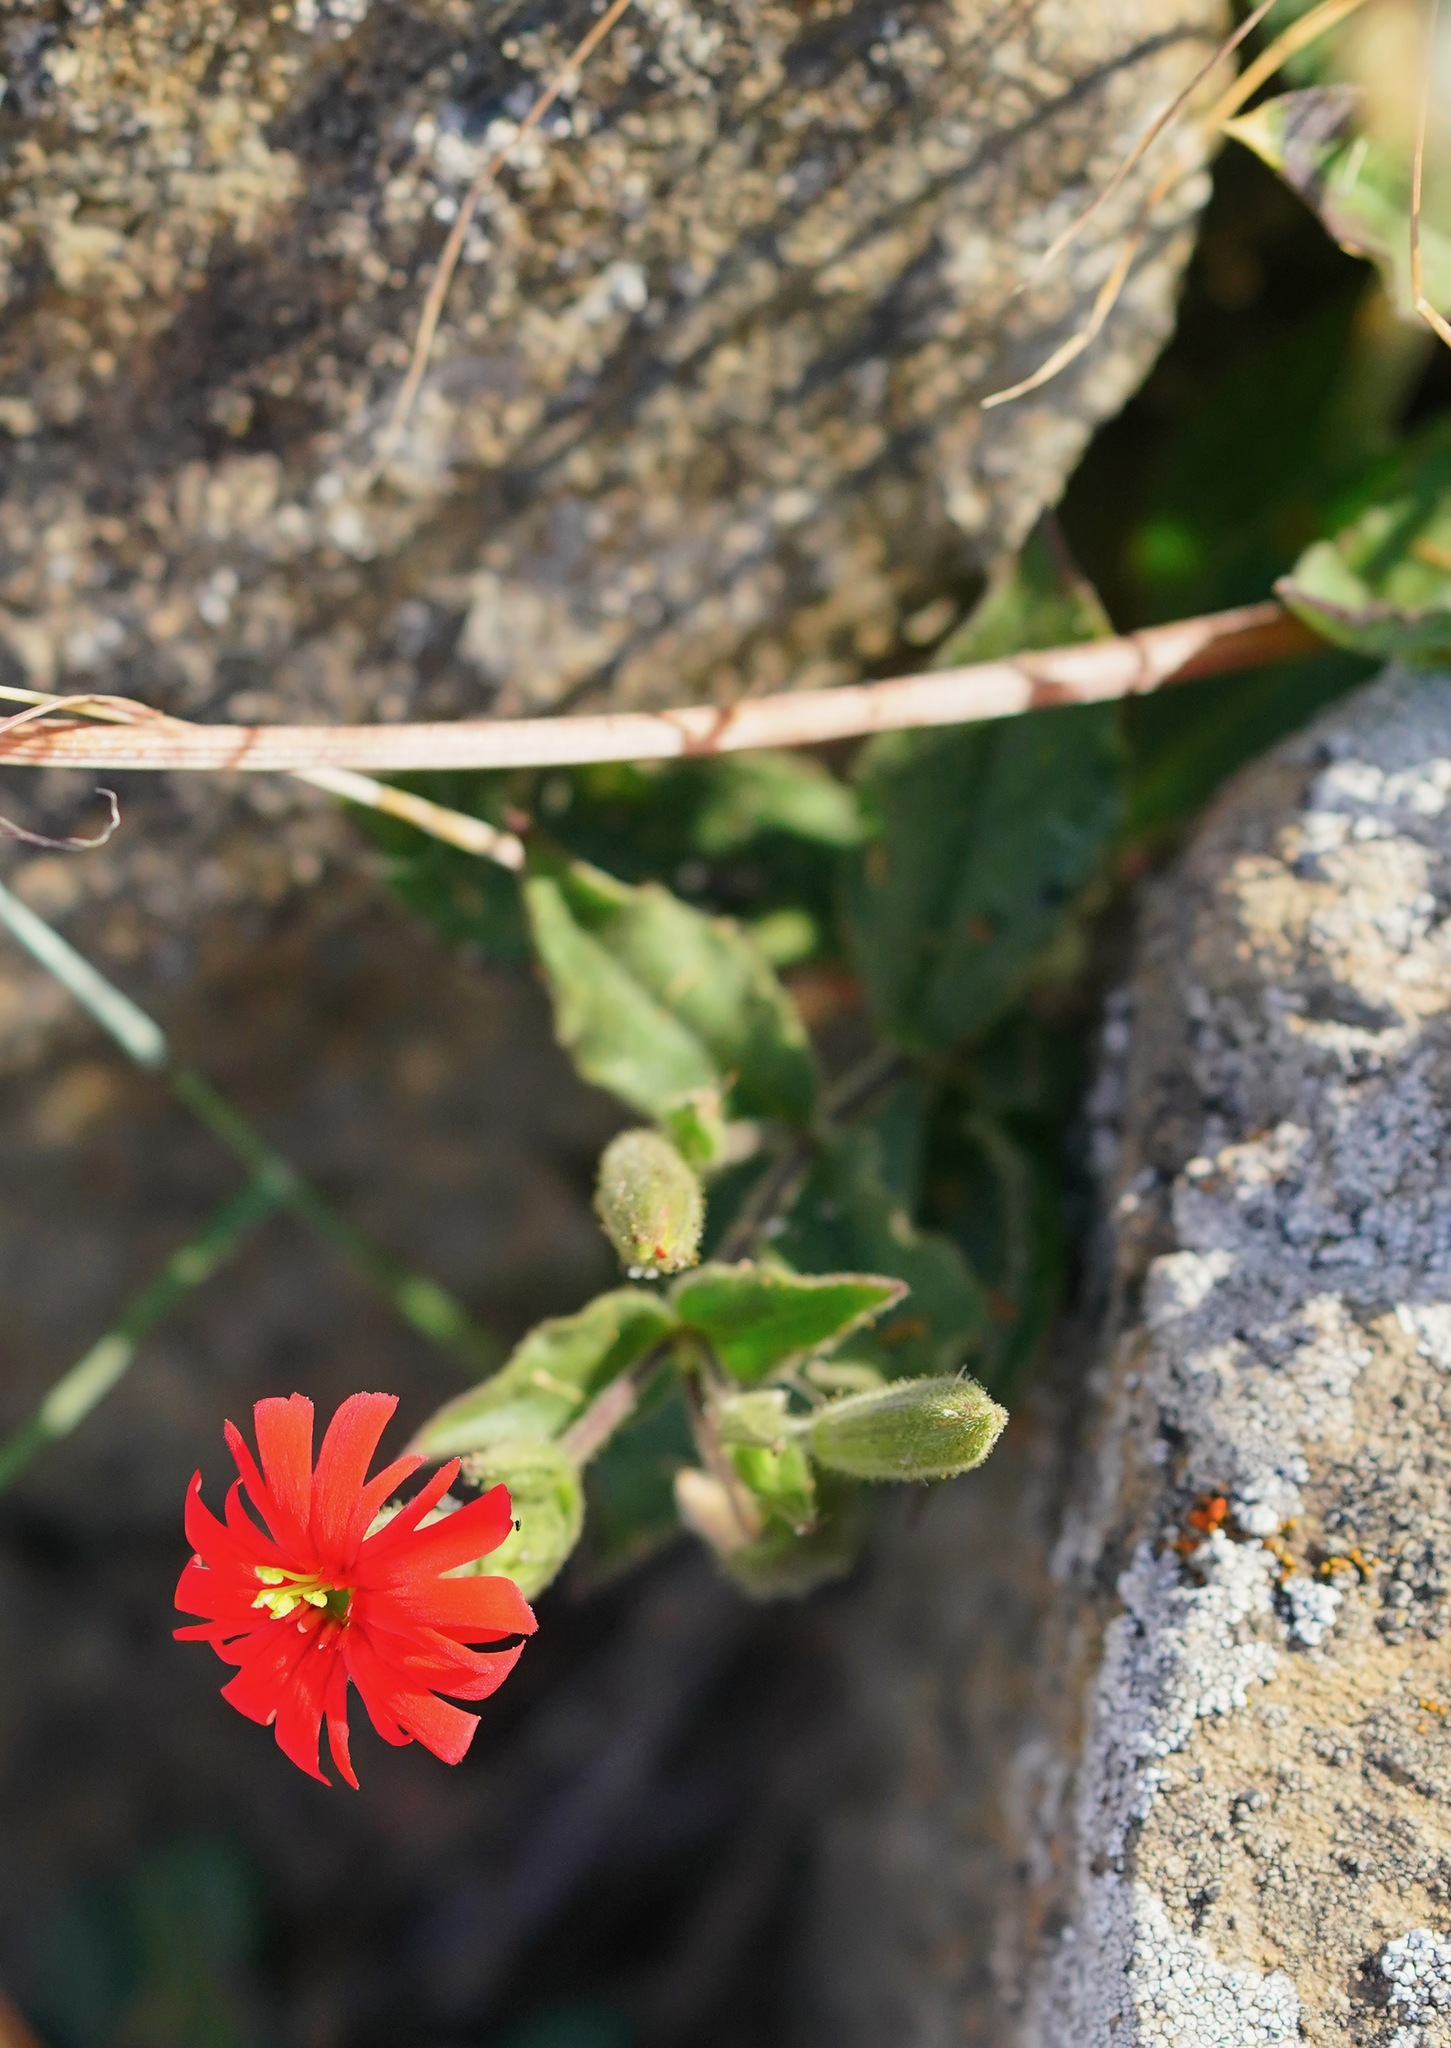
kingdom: Plantae
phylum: Tracheophyta
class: Magnoliopsida
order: Caryophyllales
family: Caryophyllaceae
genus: Silene
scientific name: Silene laciniata
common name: Indian-pink
